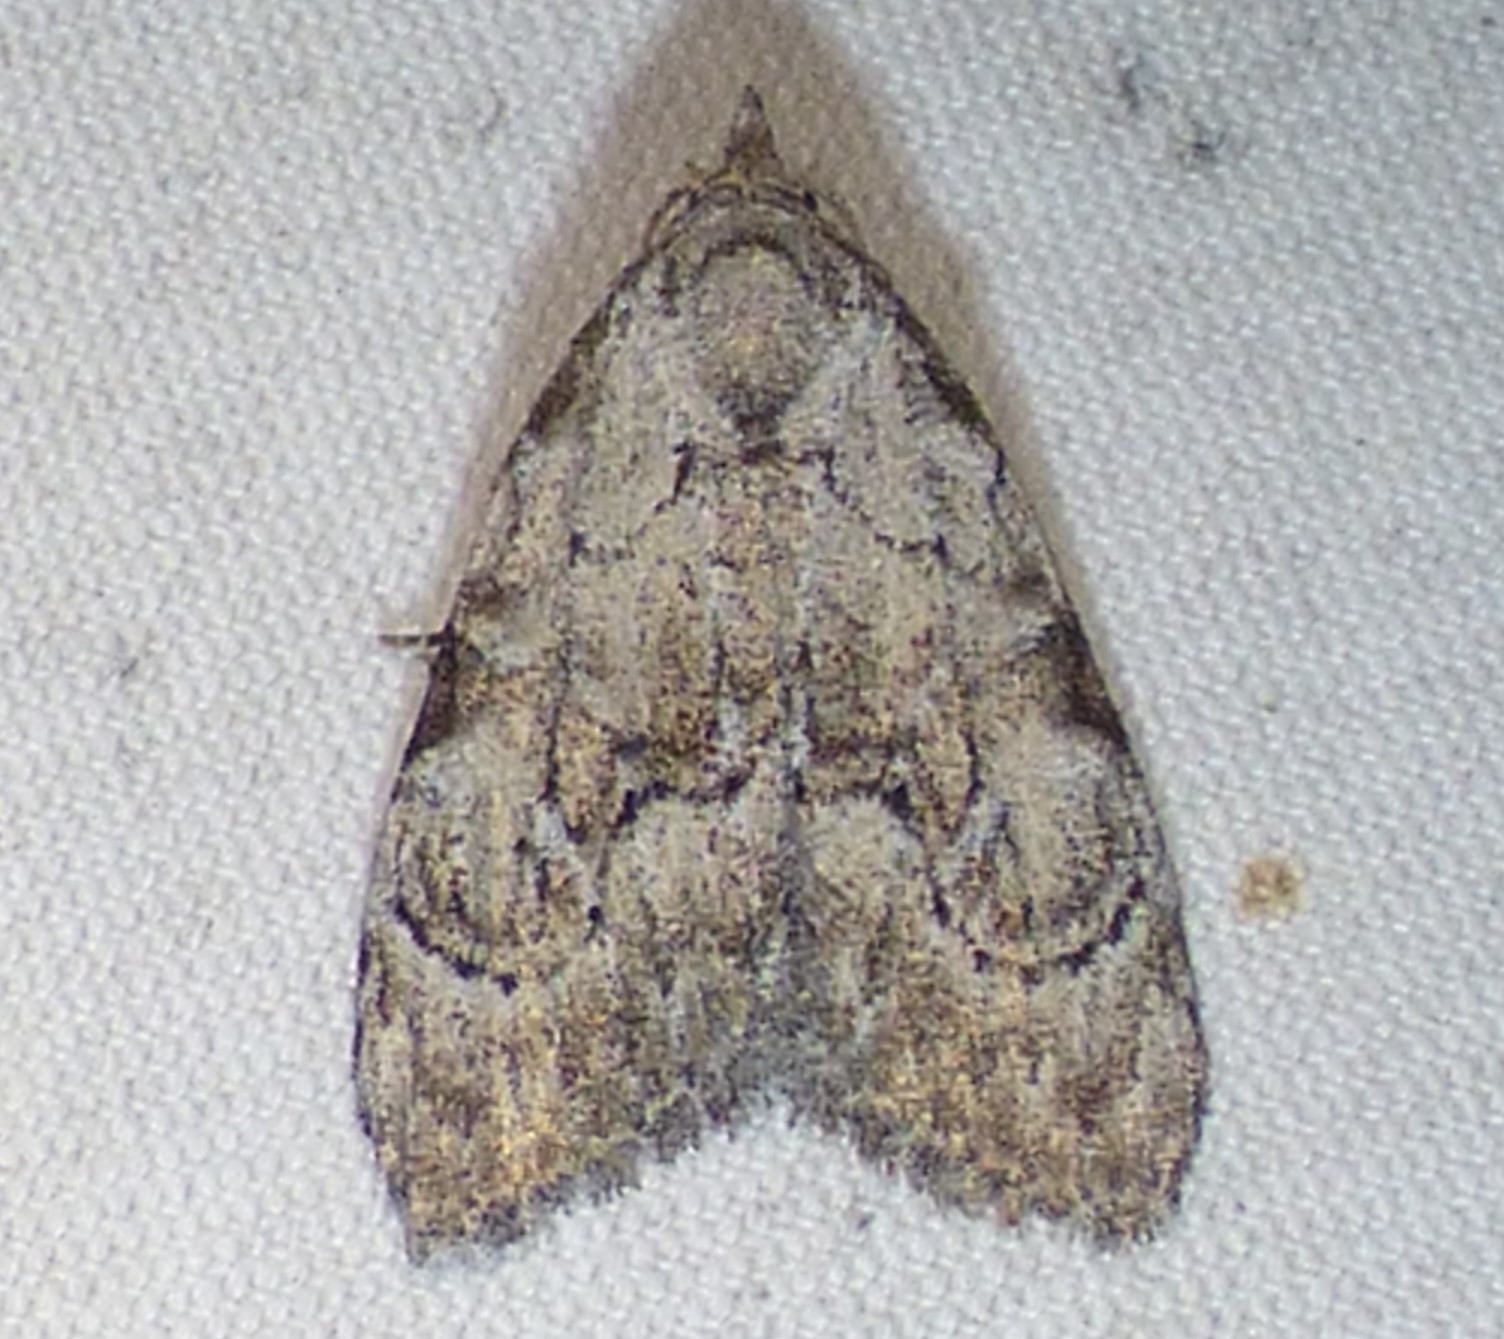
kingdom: Animalia
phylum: Arthropoda
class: Insecta
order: Lepidoptera
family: Nolidae
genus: Meganola
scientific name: Meganola minuscula
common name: Confused meganola moth
